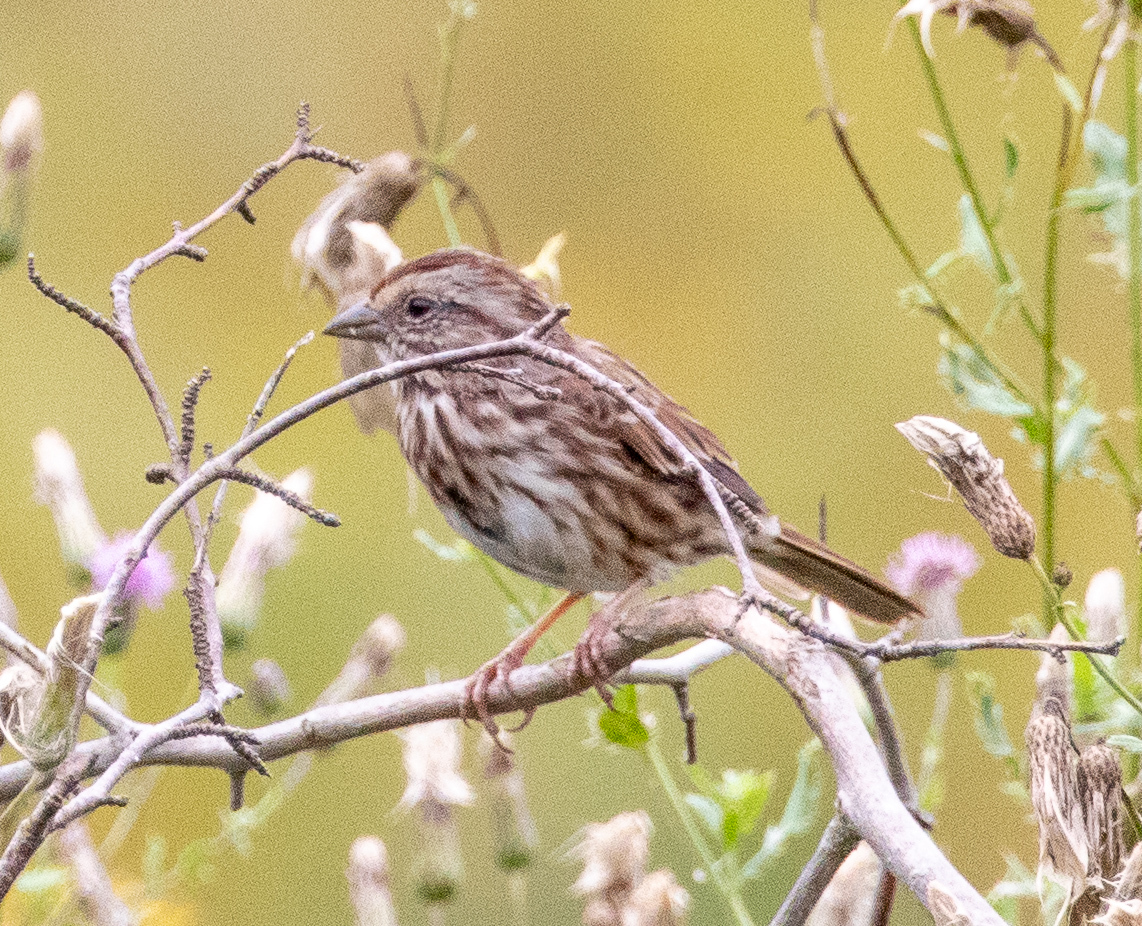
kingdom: Animalia
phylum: Chordata
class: Aves
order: Passeriformes
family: Passerellidae
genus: Melospiza
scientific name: Melospiza melodia
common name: Song sparrow
